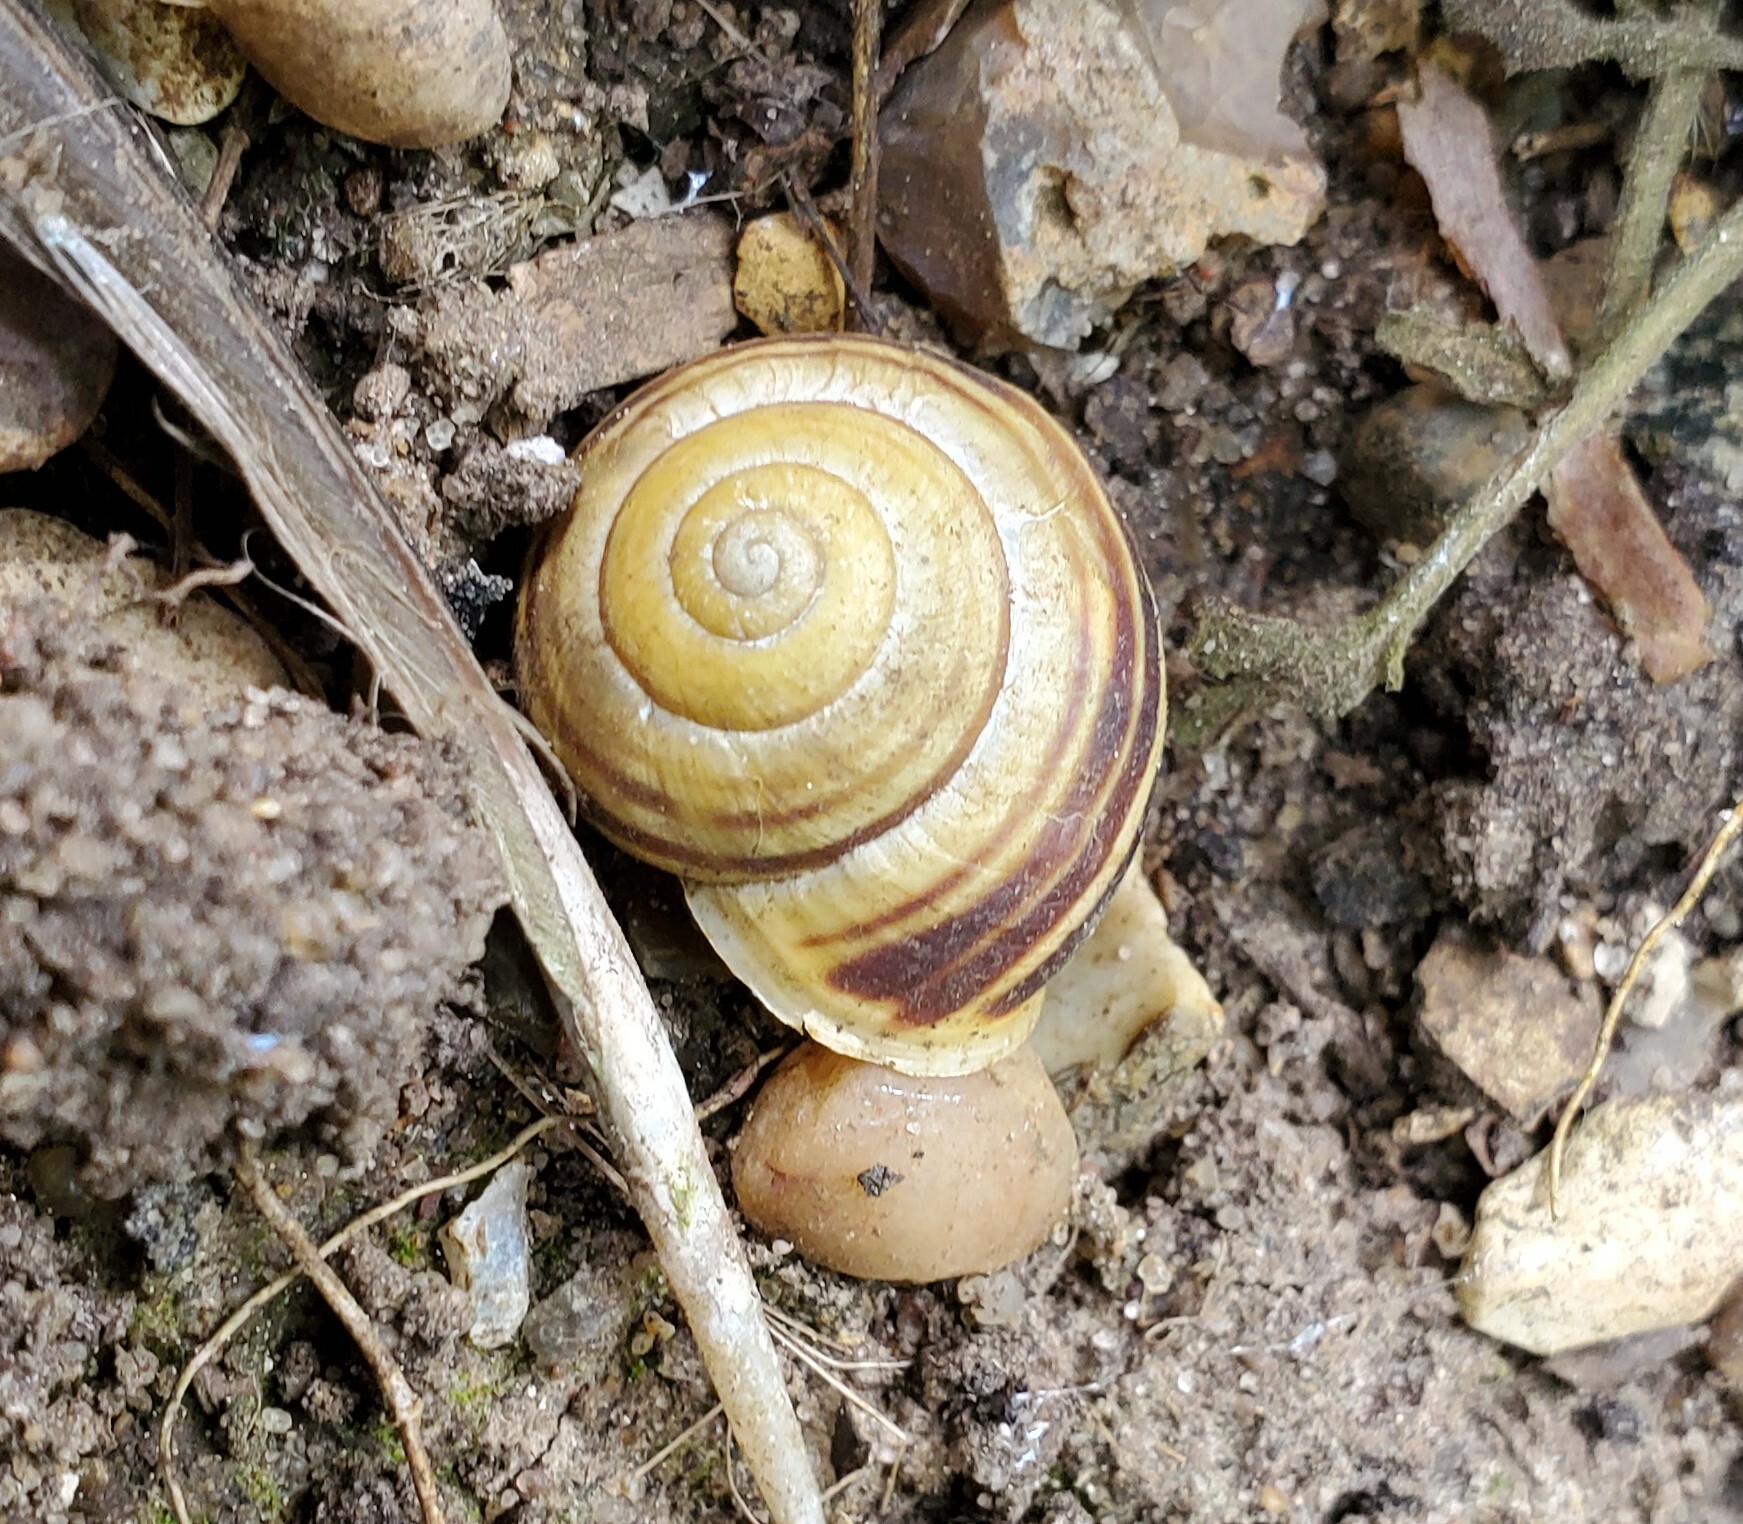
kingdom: Animalia
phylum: Mollusca
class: Gastropoda
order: Stylommatophora
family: Helicidae
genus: Cepaea
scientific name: Cepaea hortensis
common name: White-lip gardensnail
